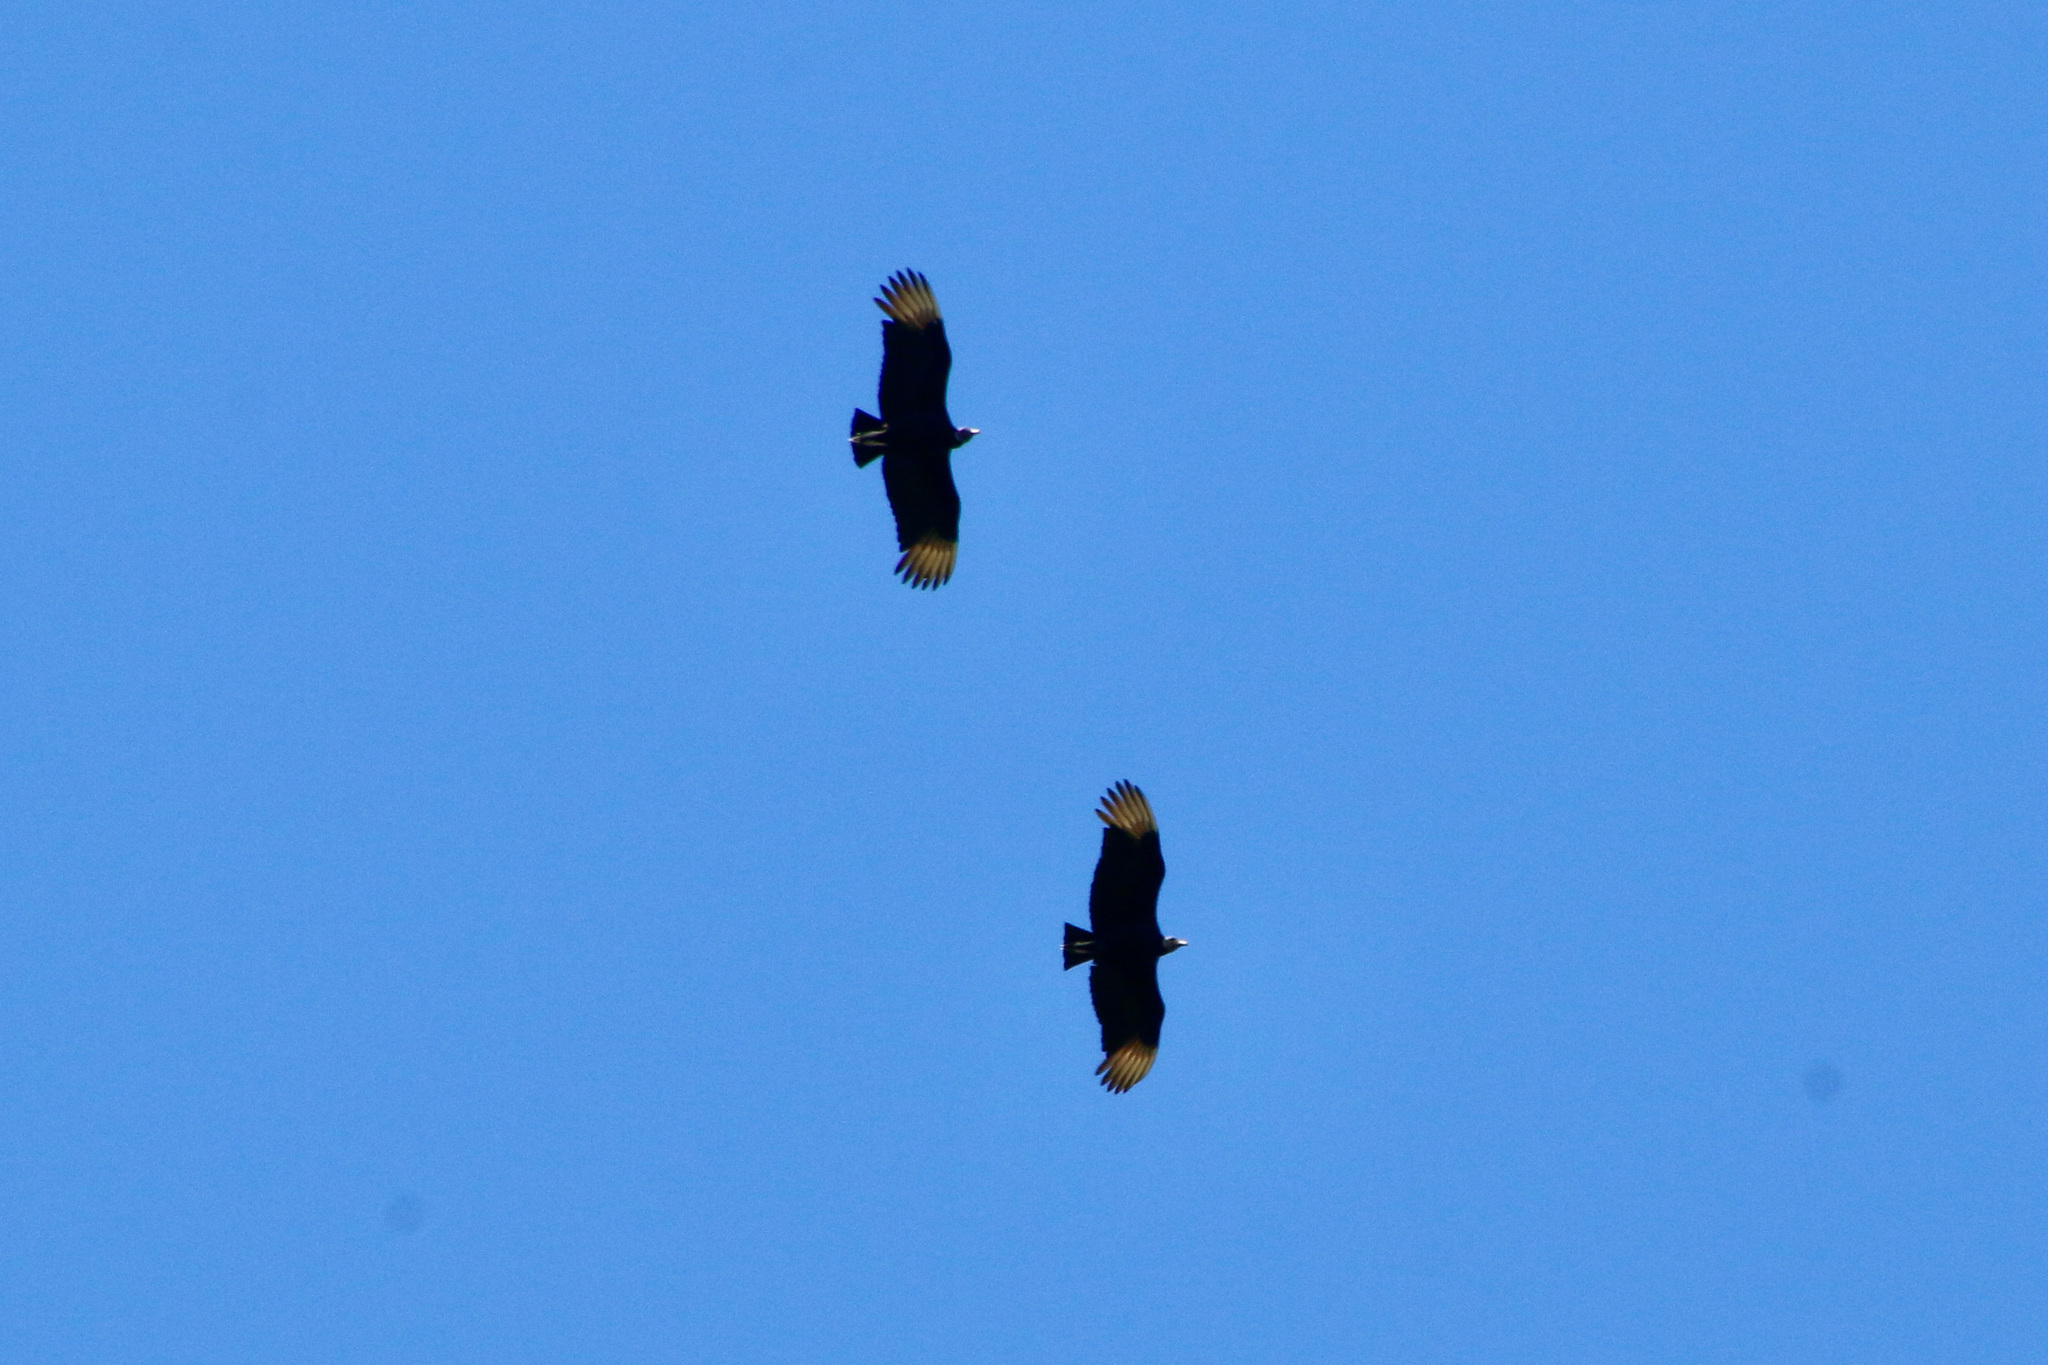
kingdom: Animalia
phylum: Chordata
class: Aves
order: Accipitriformes
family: Cathartidae
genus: Coragyps
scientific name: Coragyps atratus
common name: Black vulture
